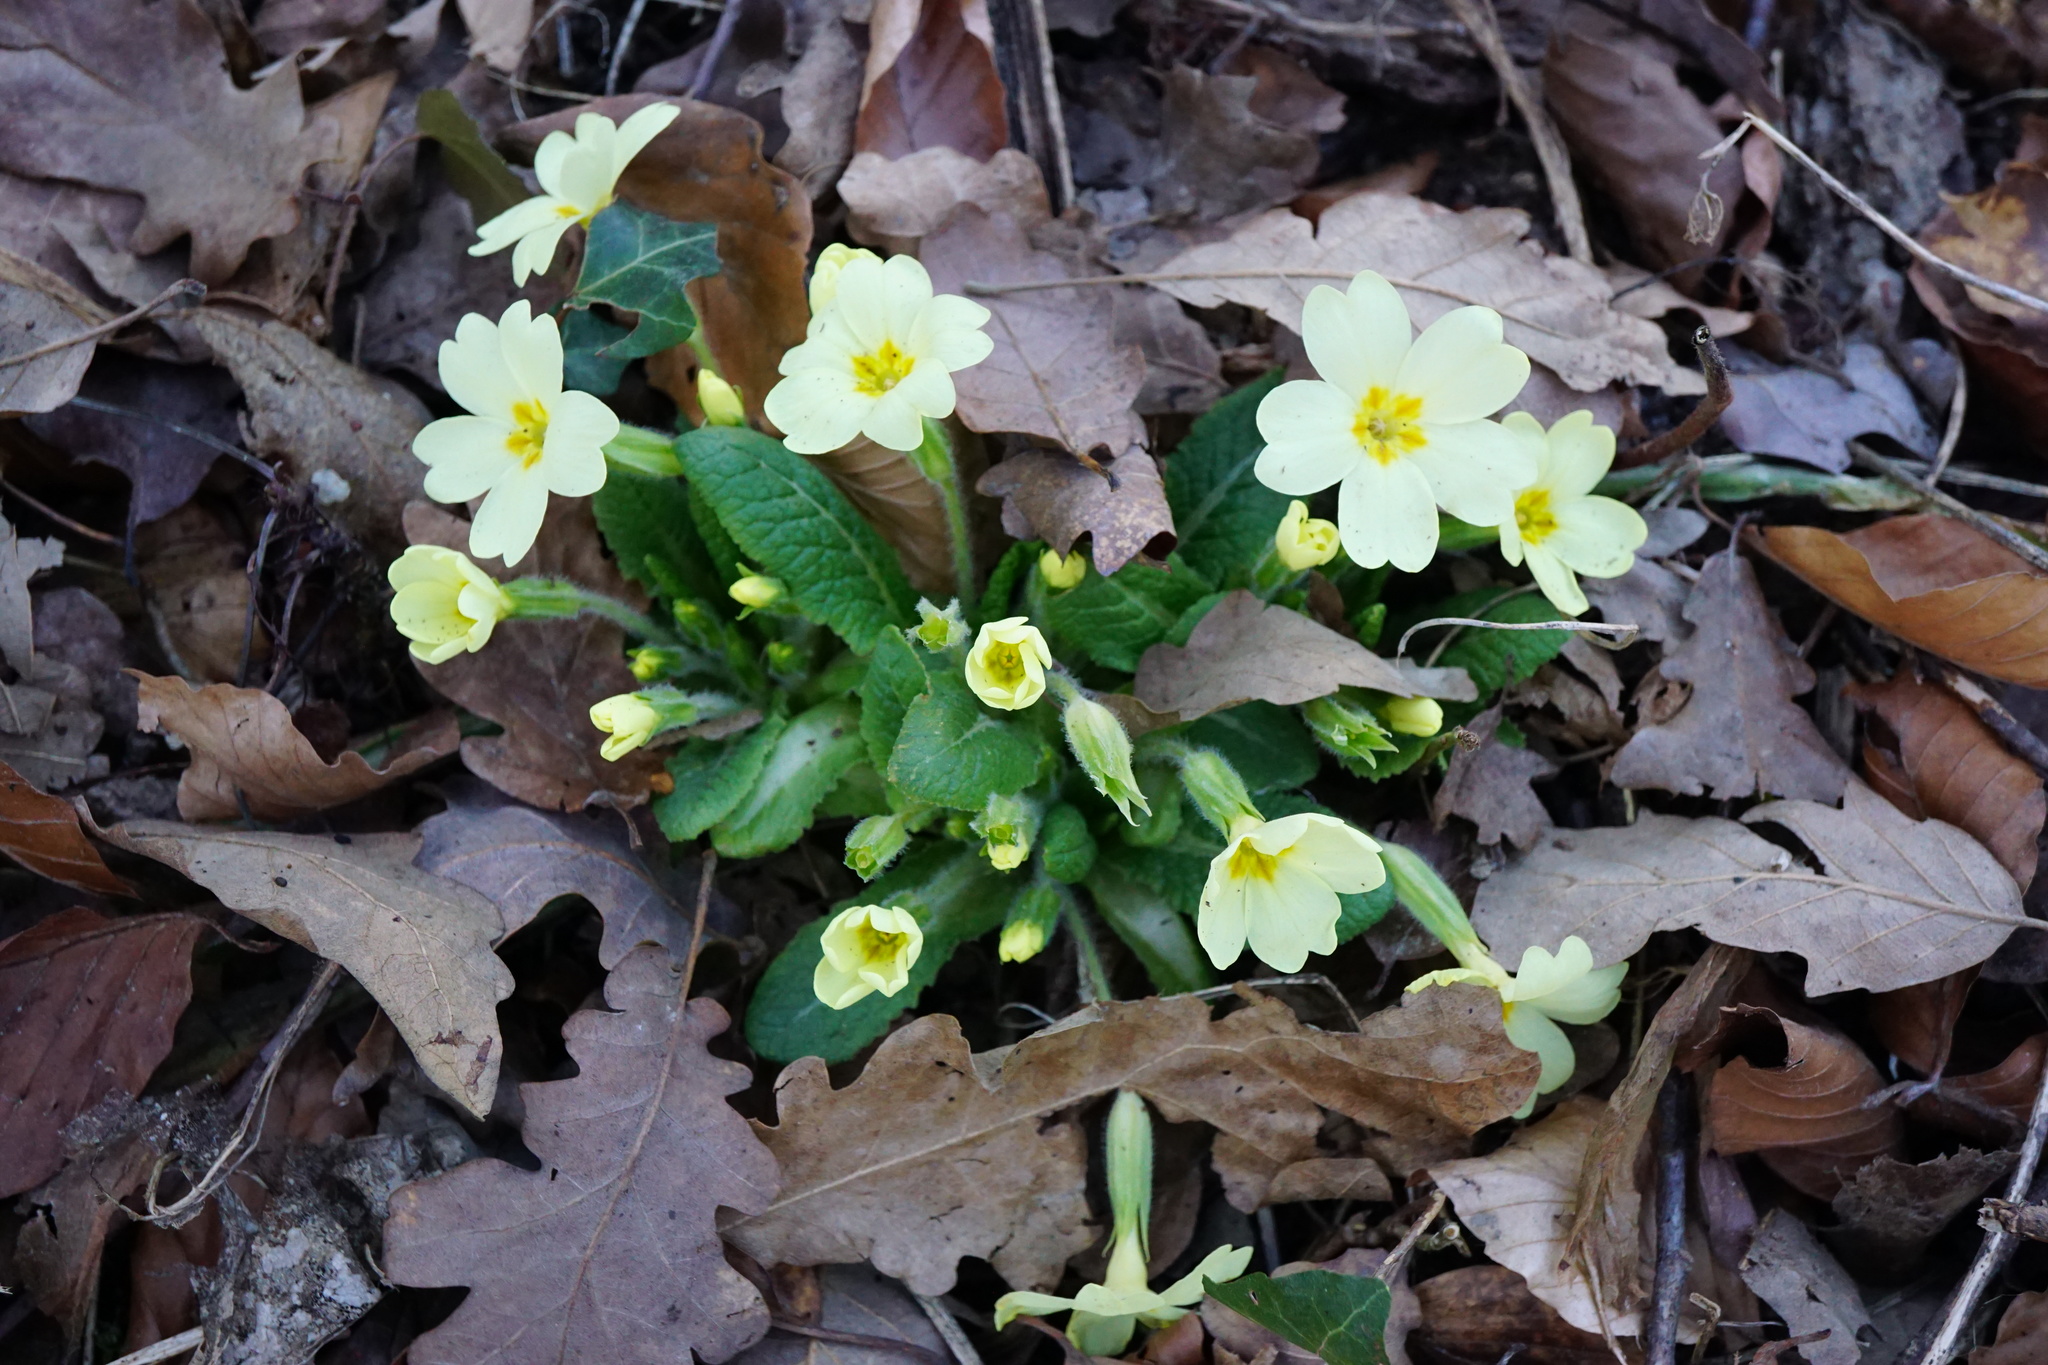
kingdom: Plantae
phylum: Tracheophyta
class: Magnoliopsida
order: Ericales
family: Primulaceae
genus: Primula
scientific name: Primula vulgaris
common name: Primrose
